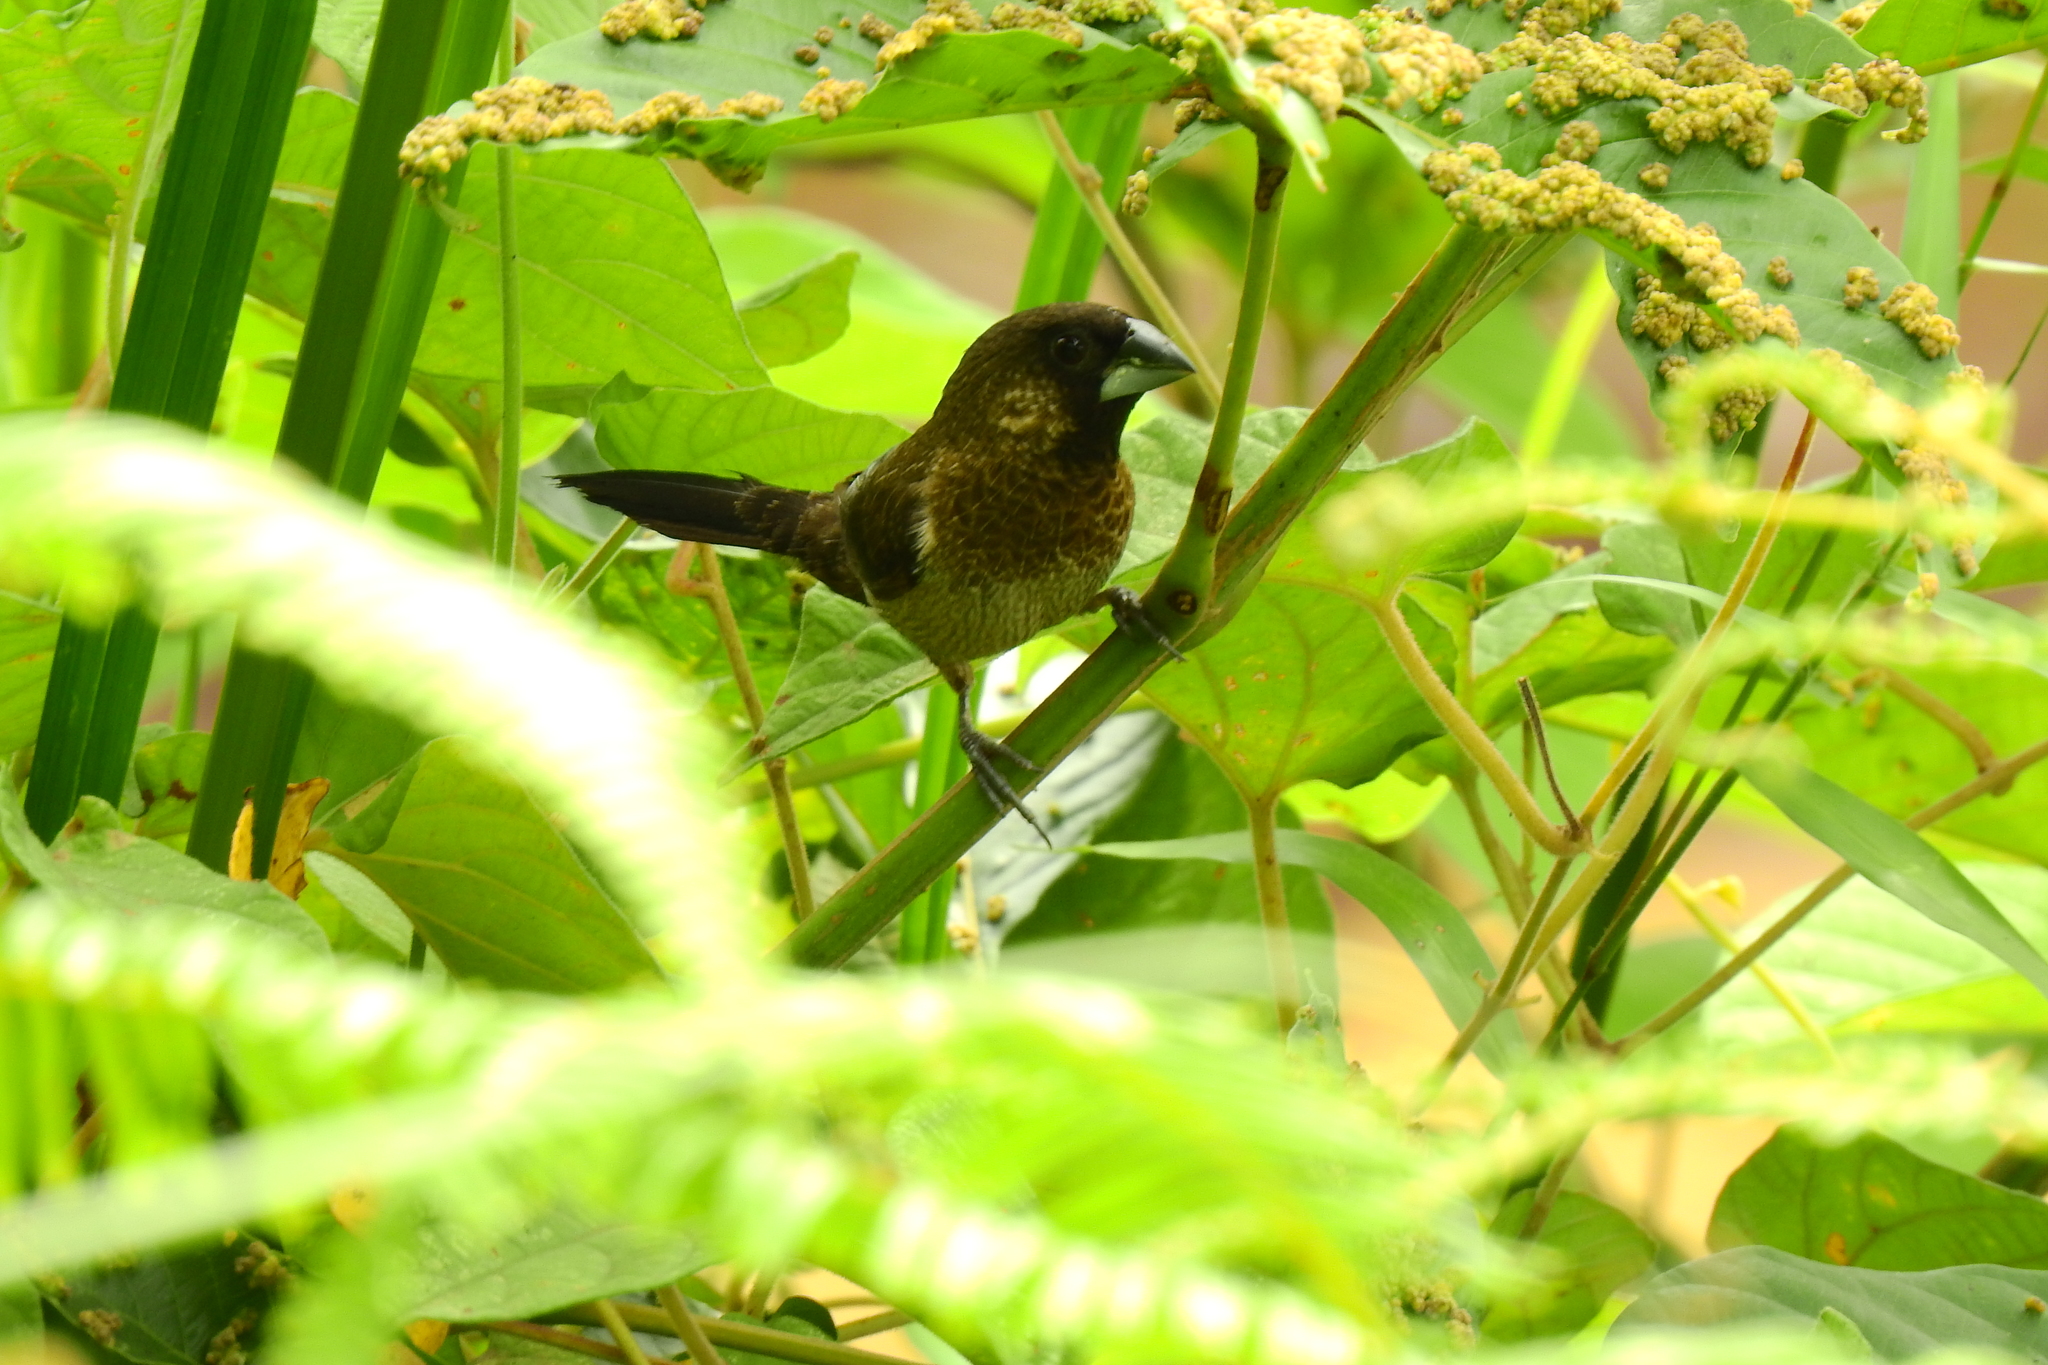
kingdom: Animalia
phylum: Chordata
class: Aves
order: Passeriformes
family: Estrildidae
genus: Lonchura
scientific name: Lonchura striata
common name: White-rumped munia
